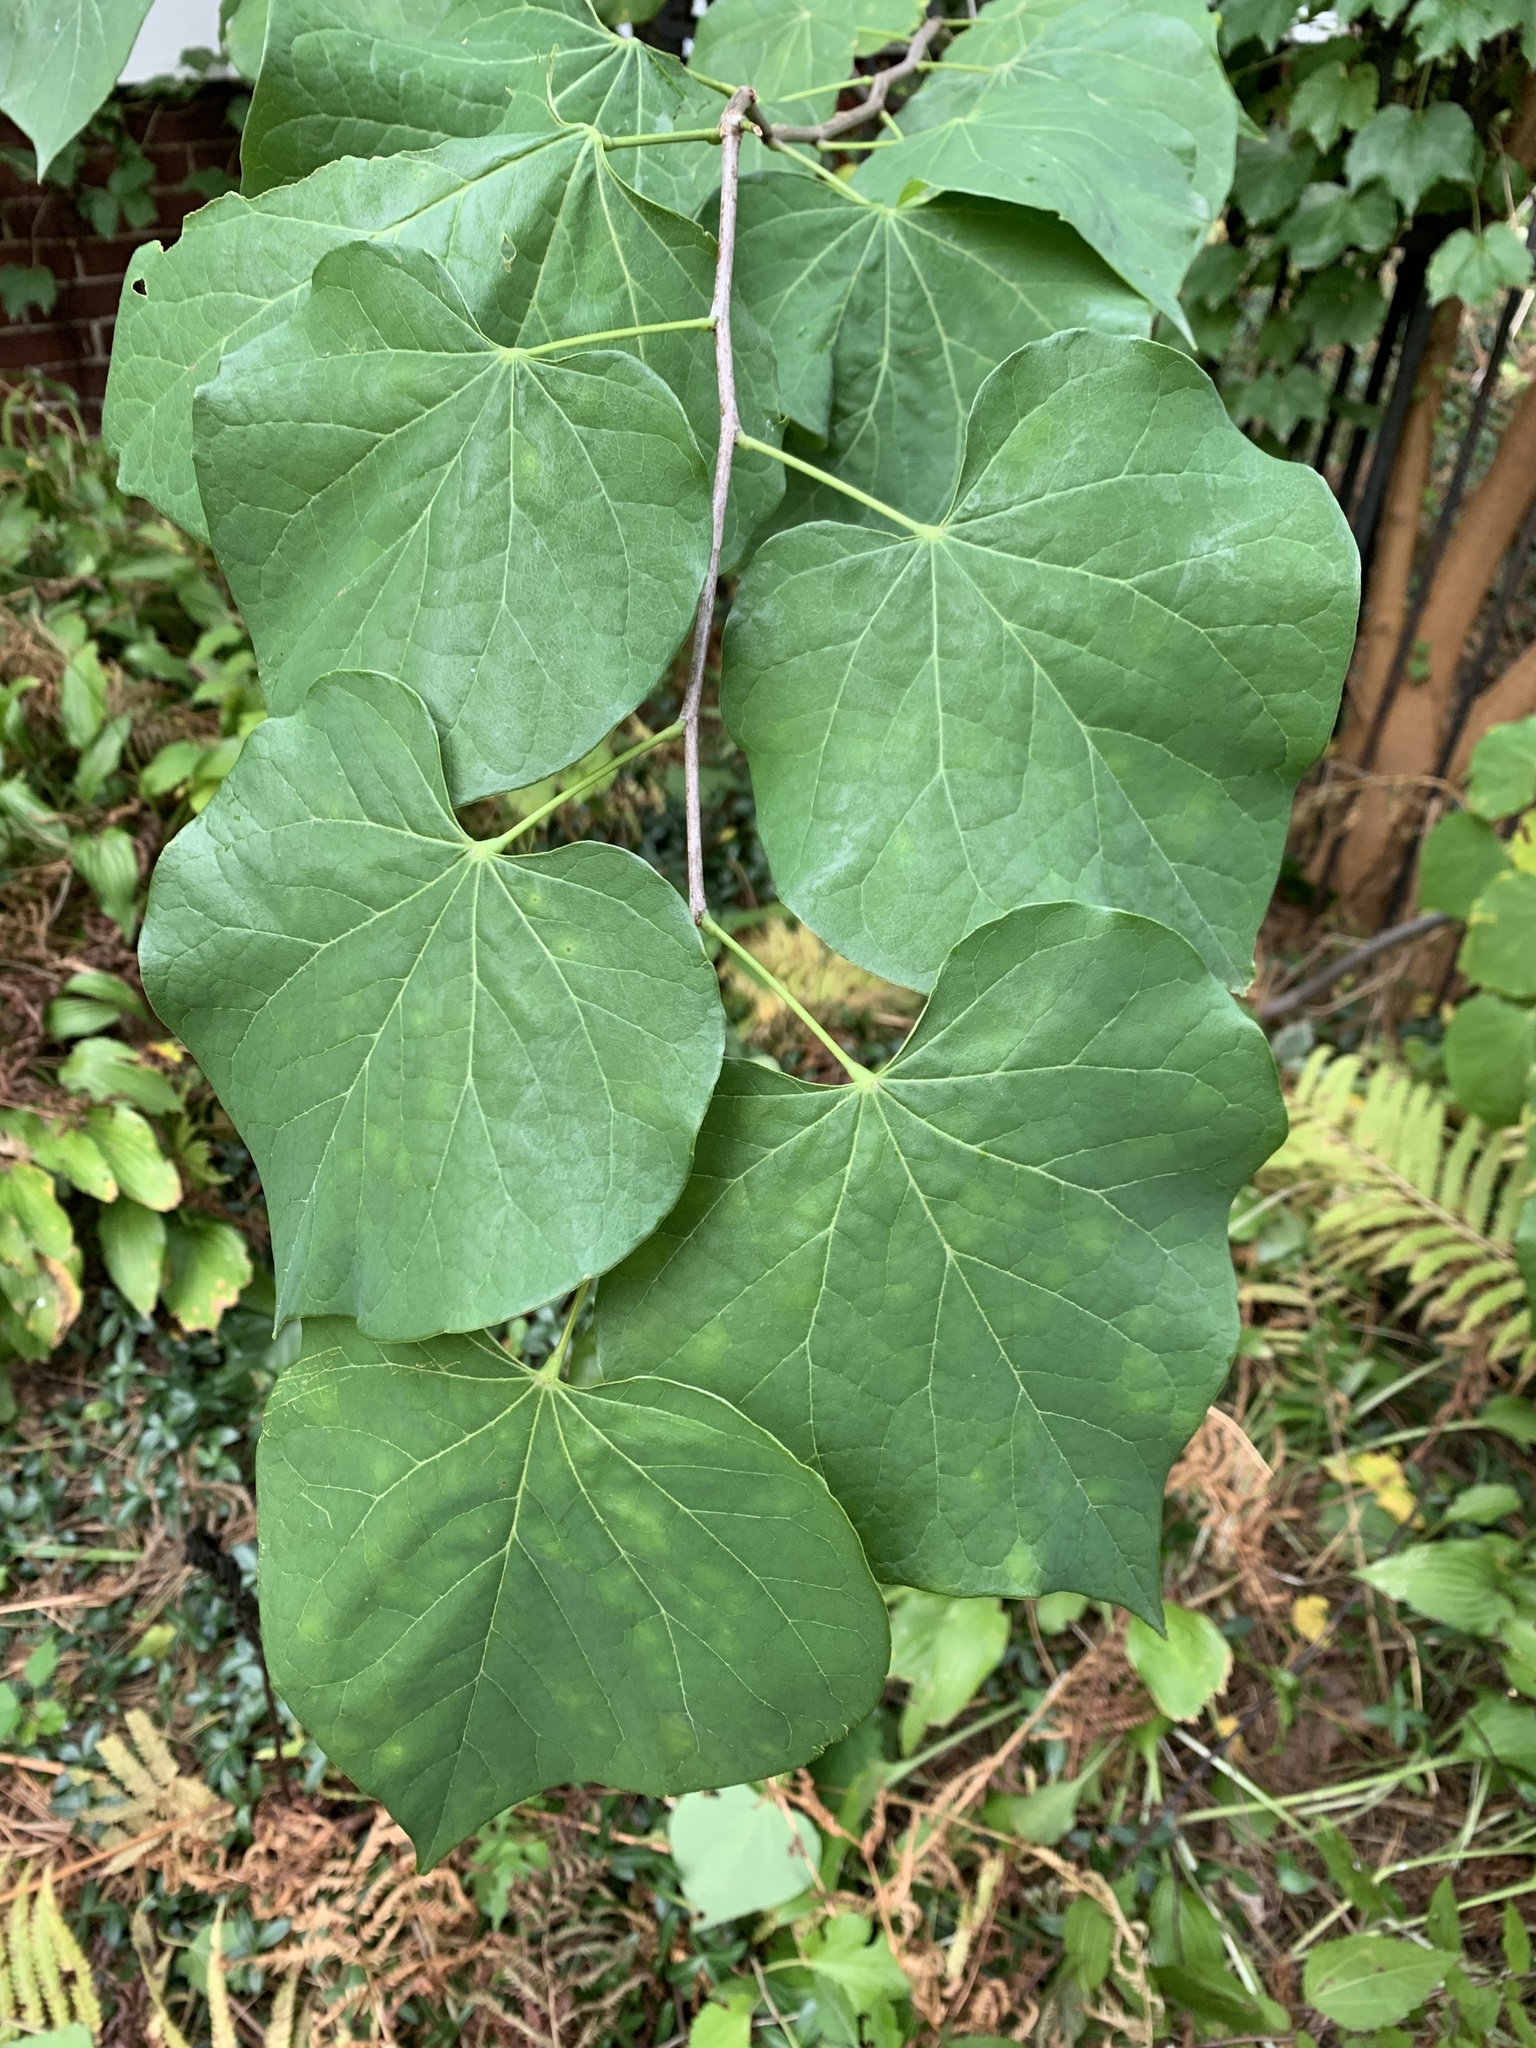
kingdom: Plantae
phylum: Tracheophyta
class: Magnoliopsida
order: Fabales
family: Fabaceae
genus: Cercis
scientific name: Cercis canadensis
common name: Eastern redbud
